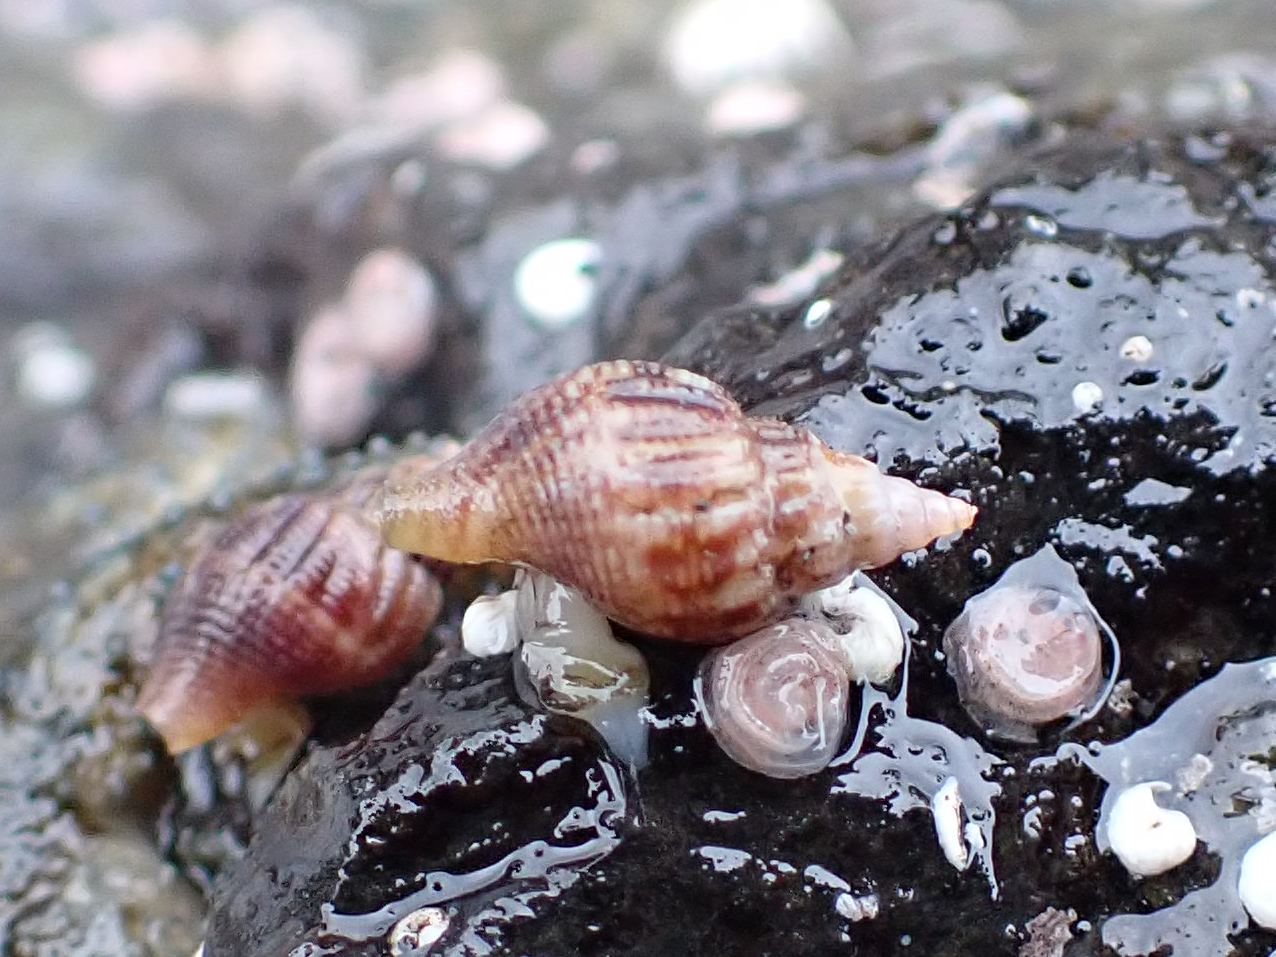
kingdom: Animalia
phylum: Mollusca
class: Gastropoda
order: Neogastropoda
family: Columbellidae
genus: Amphissa
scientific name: Amphissa columbiana
